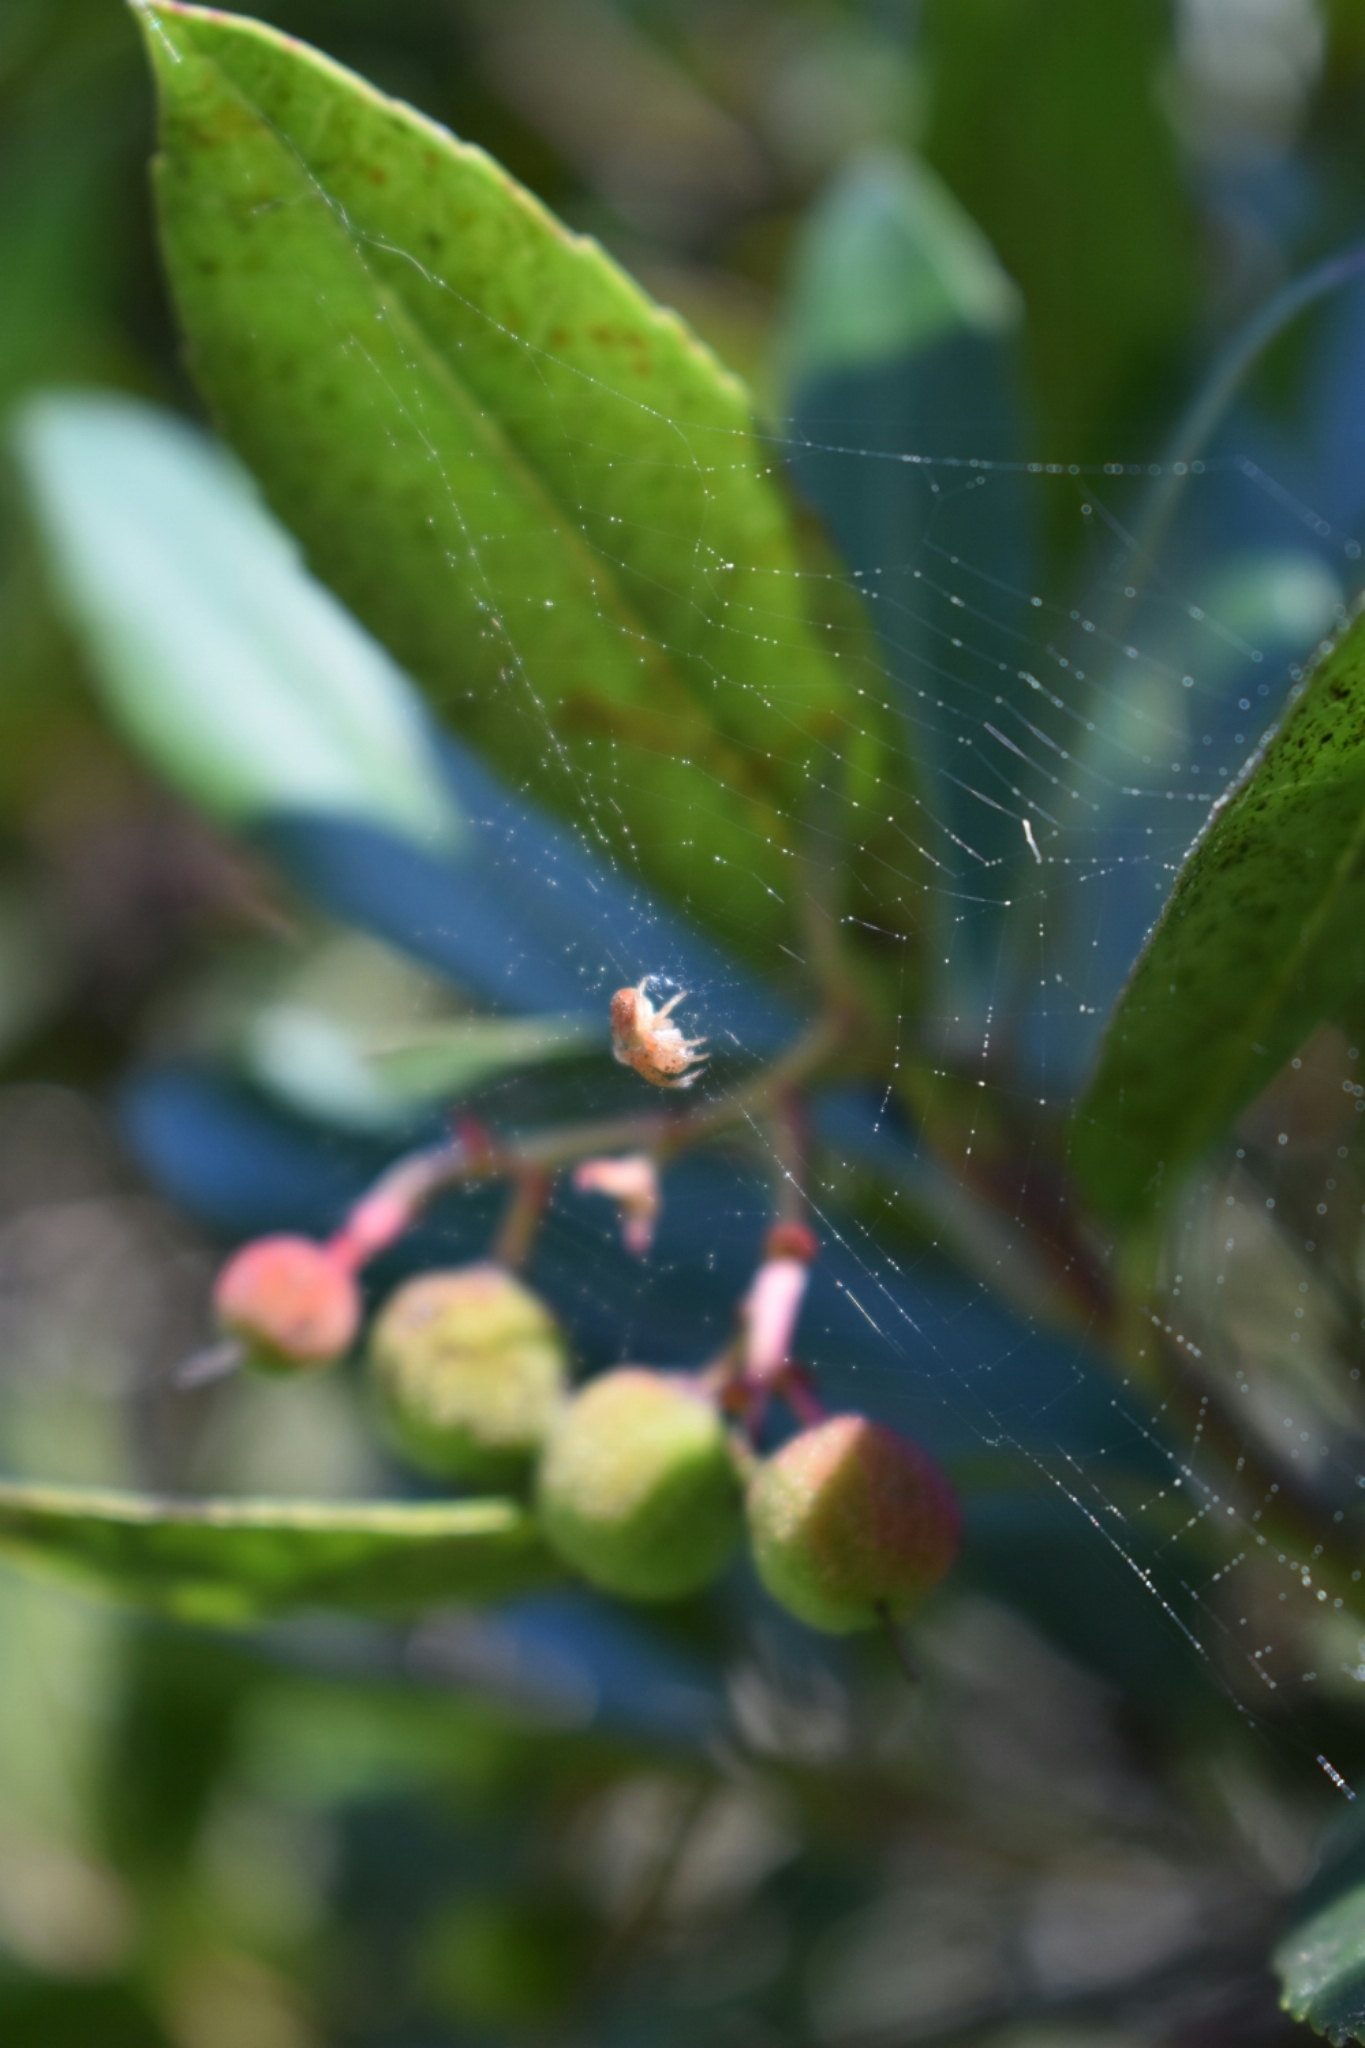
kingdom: Animalia
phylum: Arthropoda
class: Arachnida
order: Araneae
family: Araneidae
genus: Araniella
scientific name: Araniella displicata
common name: Sixspotted orb weaver
